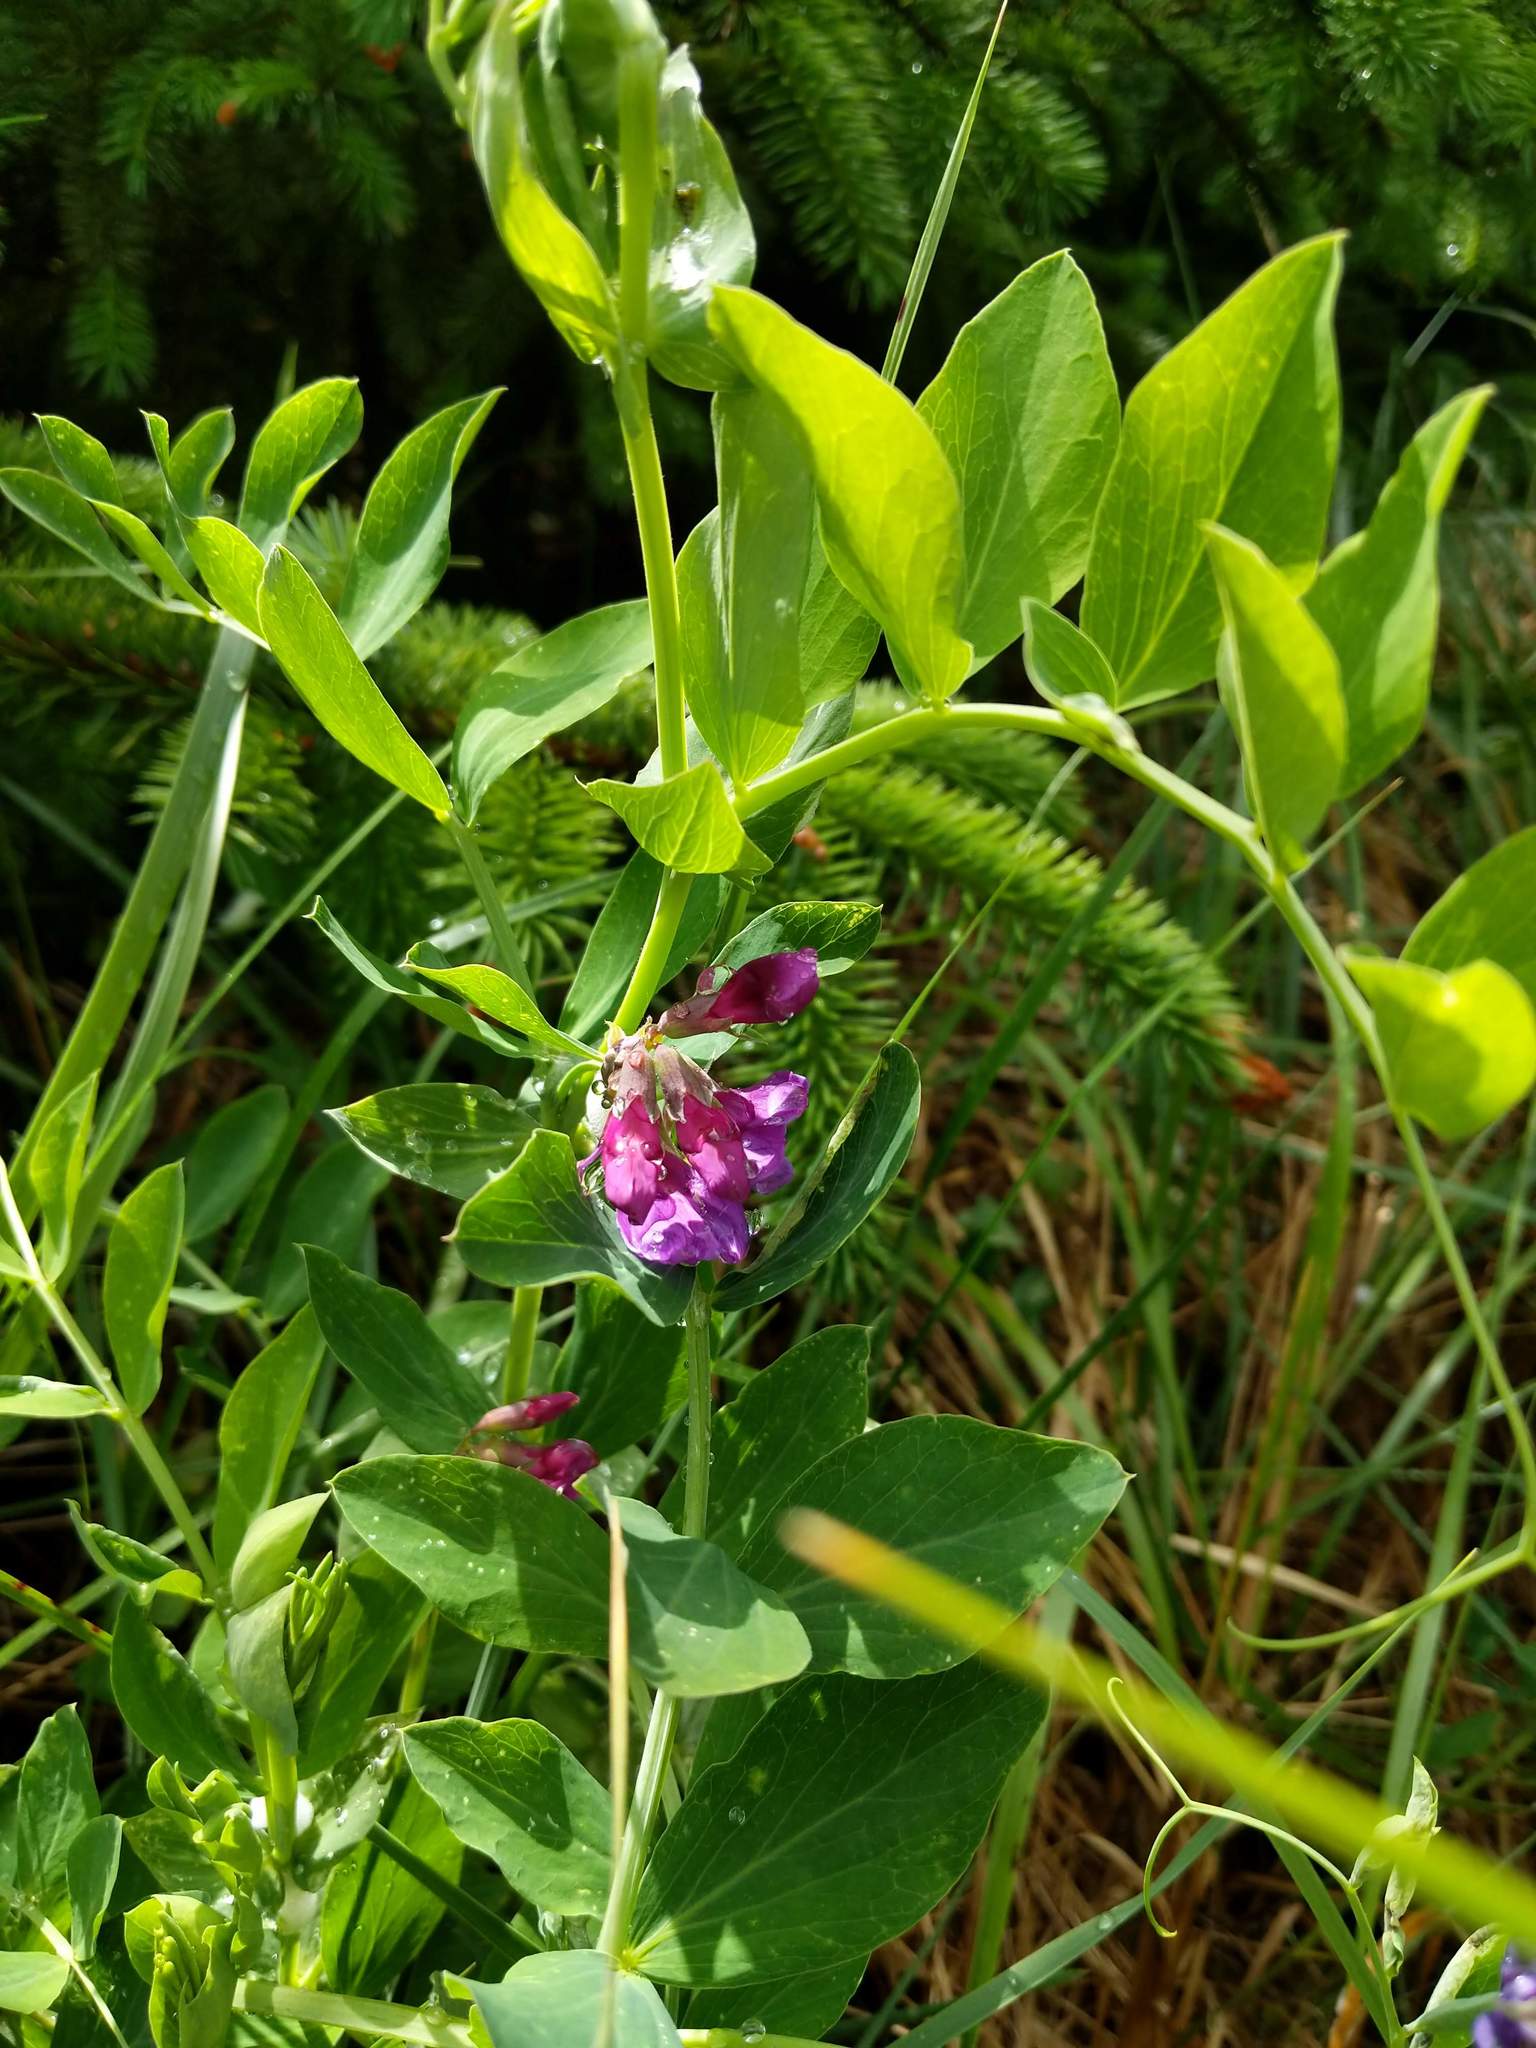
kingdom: Plantae
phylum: Tracheophyta
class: Magnoliopsida
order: Fabales
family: Fabaceae
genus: Lathyrus
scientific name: Lathyrus japonicus
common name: Sea pea
